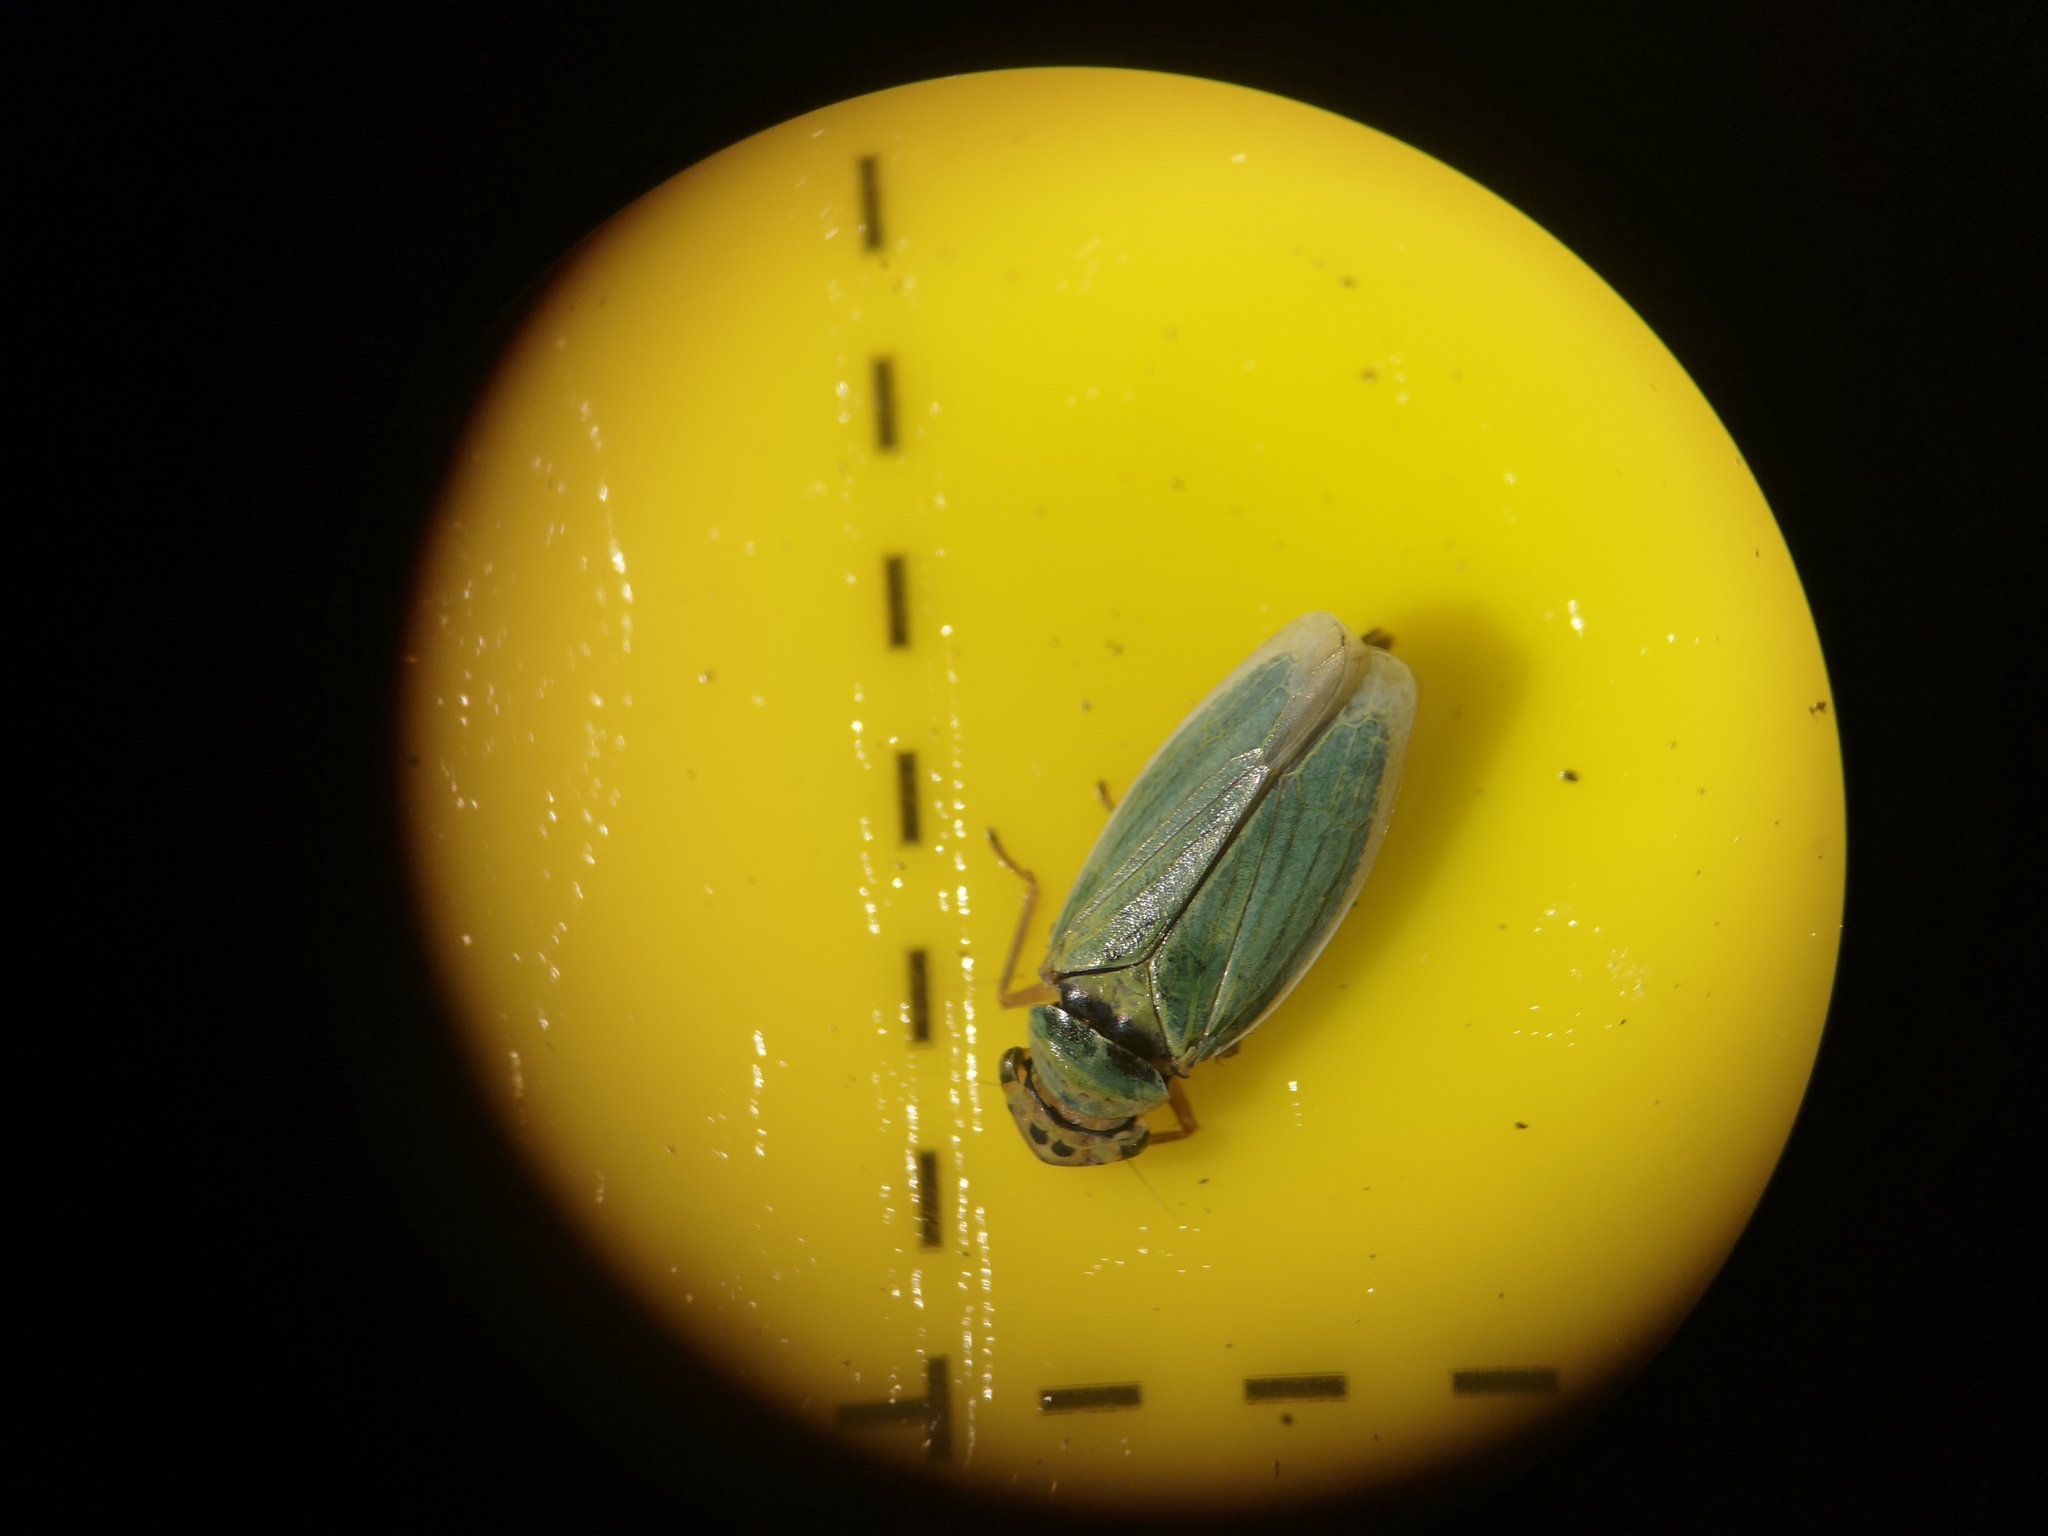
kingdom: Animalia
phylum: Arthropoda
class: Insecta
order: Hemiptera
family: Cicadellidae
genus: Cicadella
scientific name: Cicadella viridis
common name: Leafhopper
